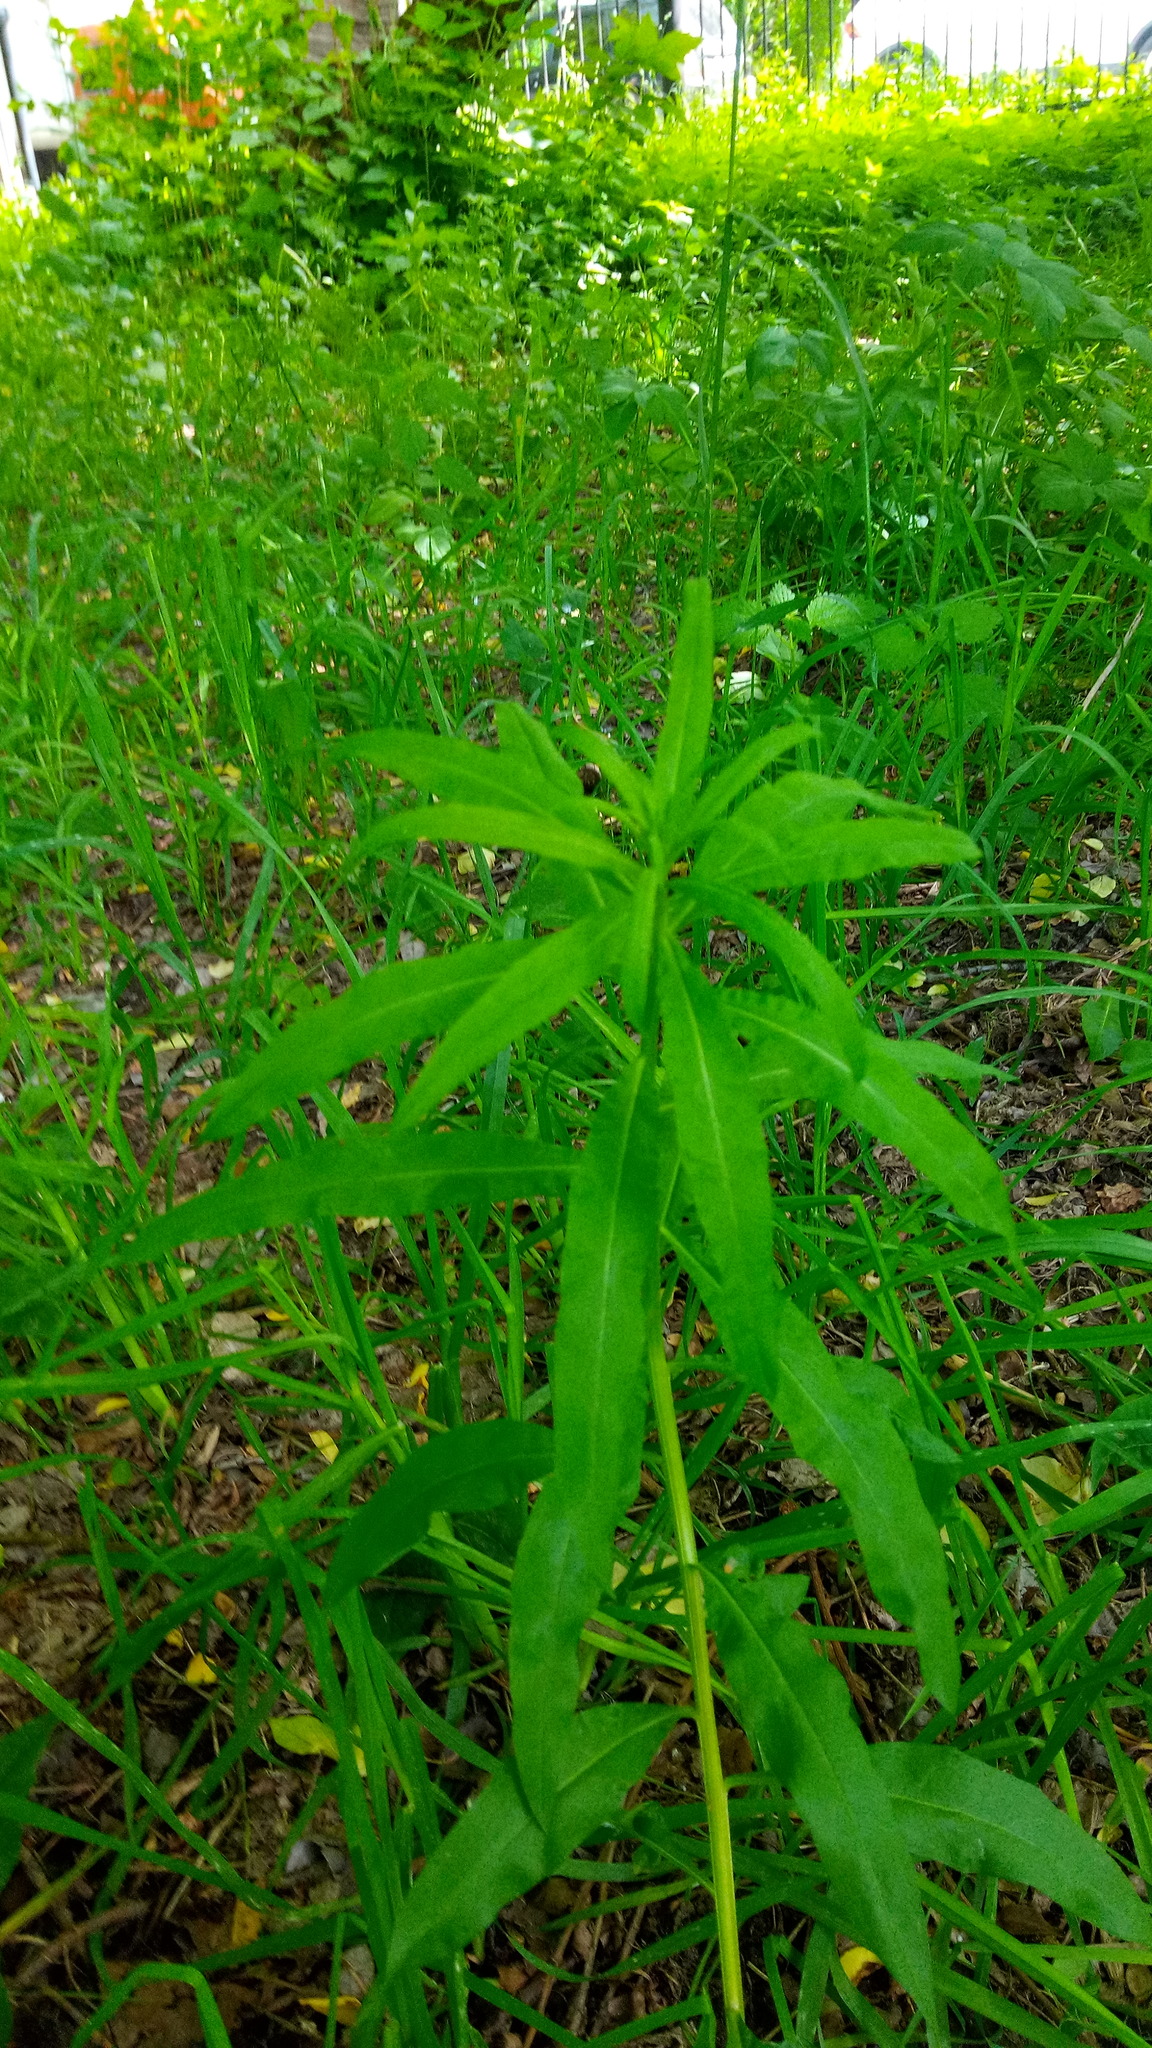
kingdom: Plantae
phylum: Tracheophyta
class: Magnoliopsida
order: Myrtales
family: Onagraceae
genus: Chamaenerion
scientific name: Chamaenerion angustifolium
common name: Fireweed
